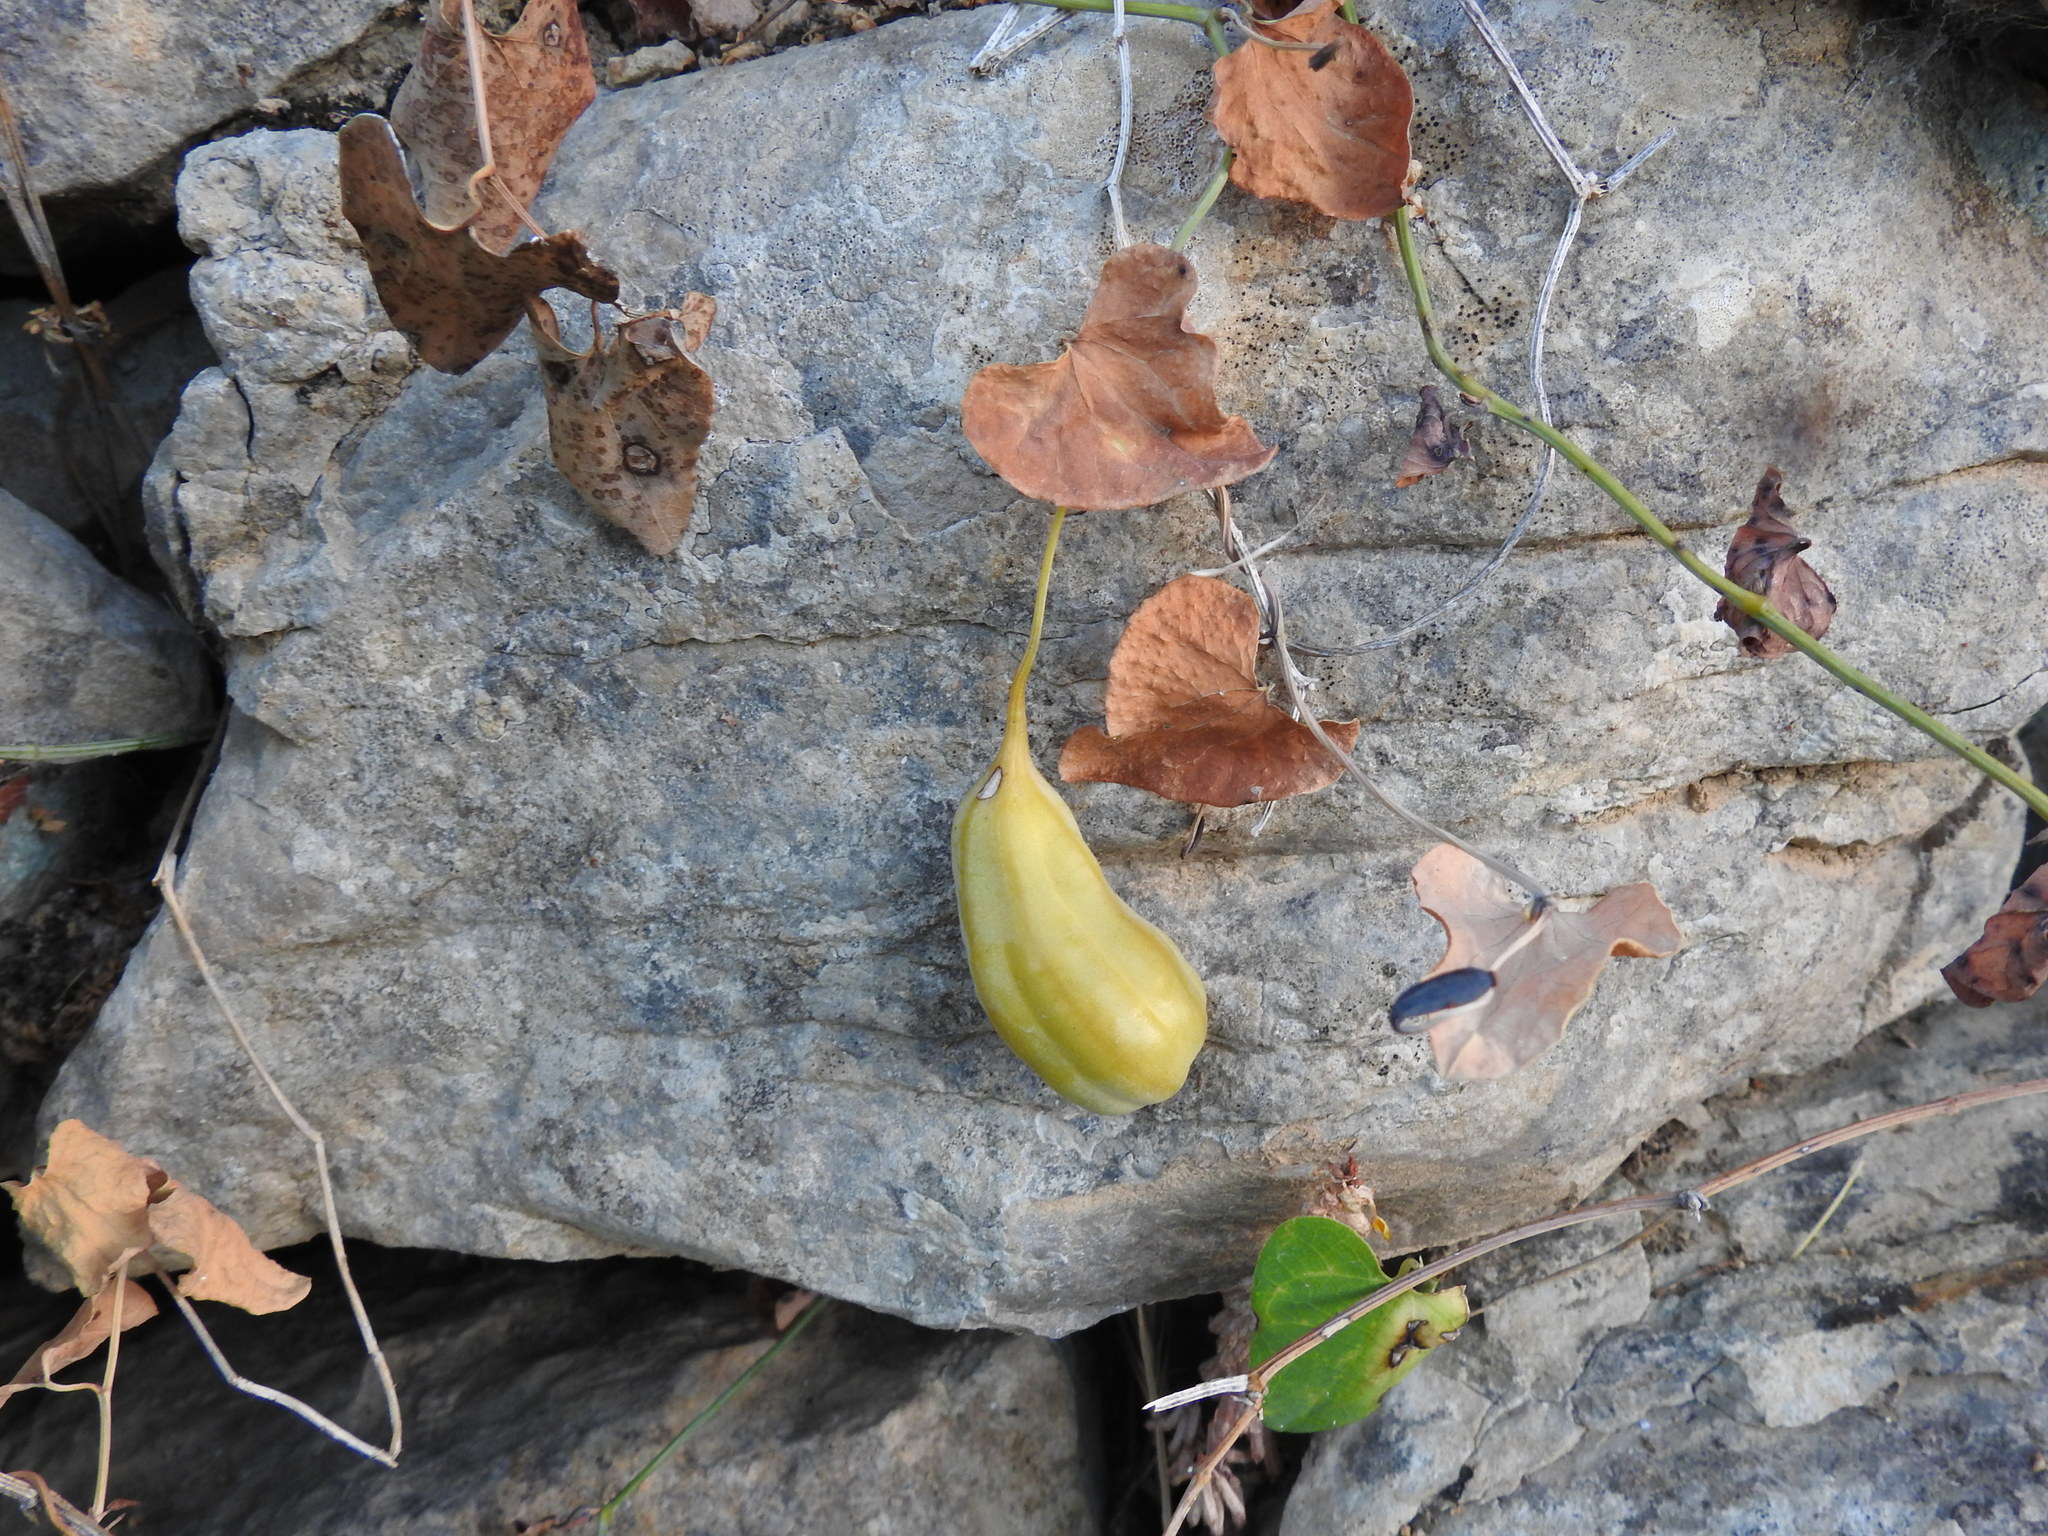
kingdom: Plantae
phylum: Tracheophyta
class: Magnoliopsida
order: Piperales
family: Aristolochiaceae
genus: Aristolochia
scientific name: Aristolochia baetica
